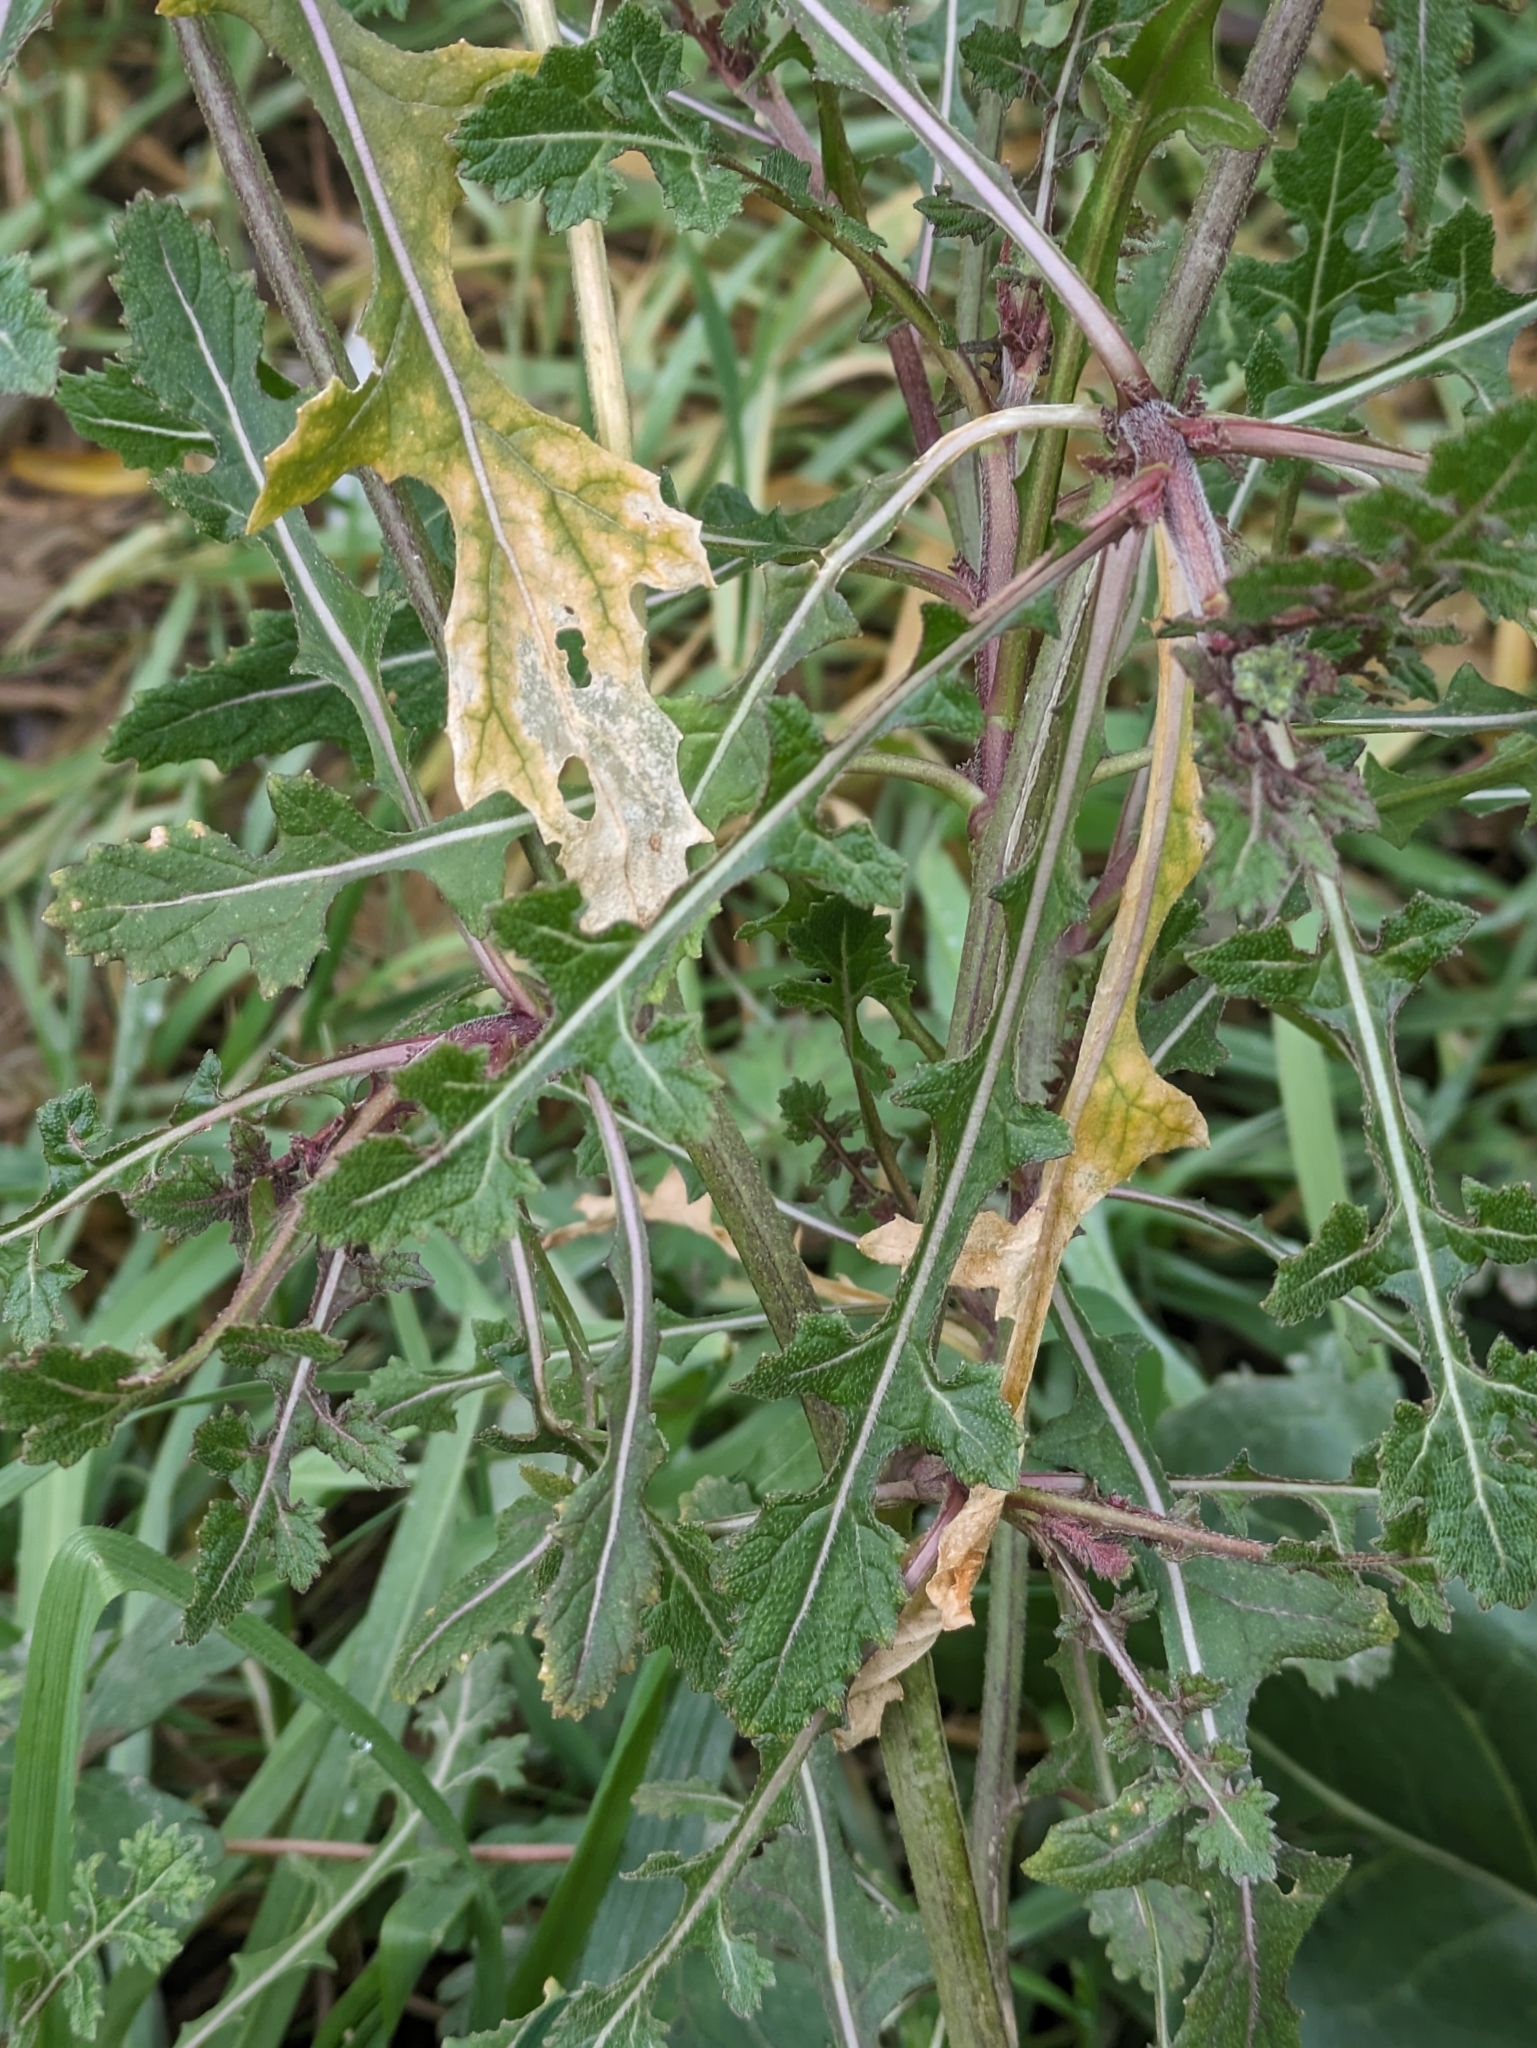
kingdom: Plantae
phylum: Tracheophyta
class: Magnoliopsida
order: Brassicales
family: Brassicaceae
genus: Diplotaxis
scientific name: Diplotaxis erucoides
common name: White rocket
